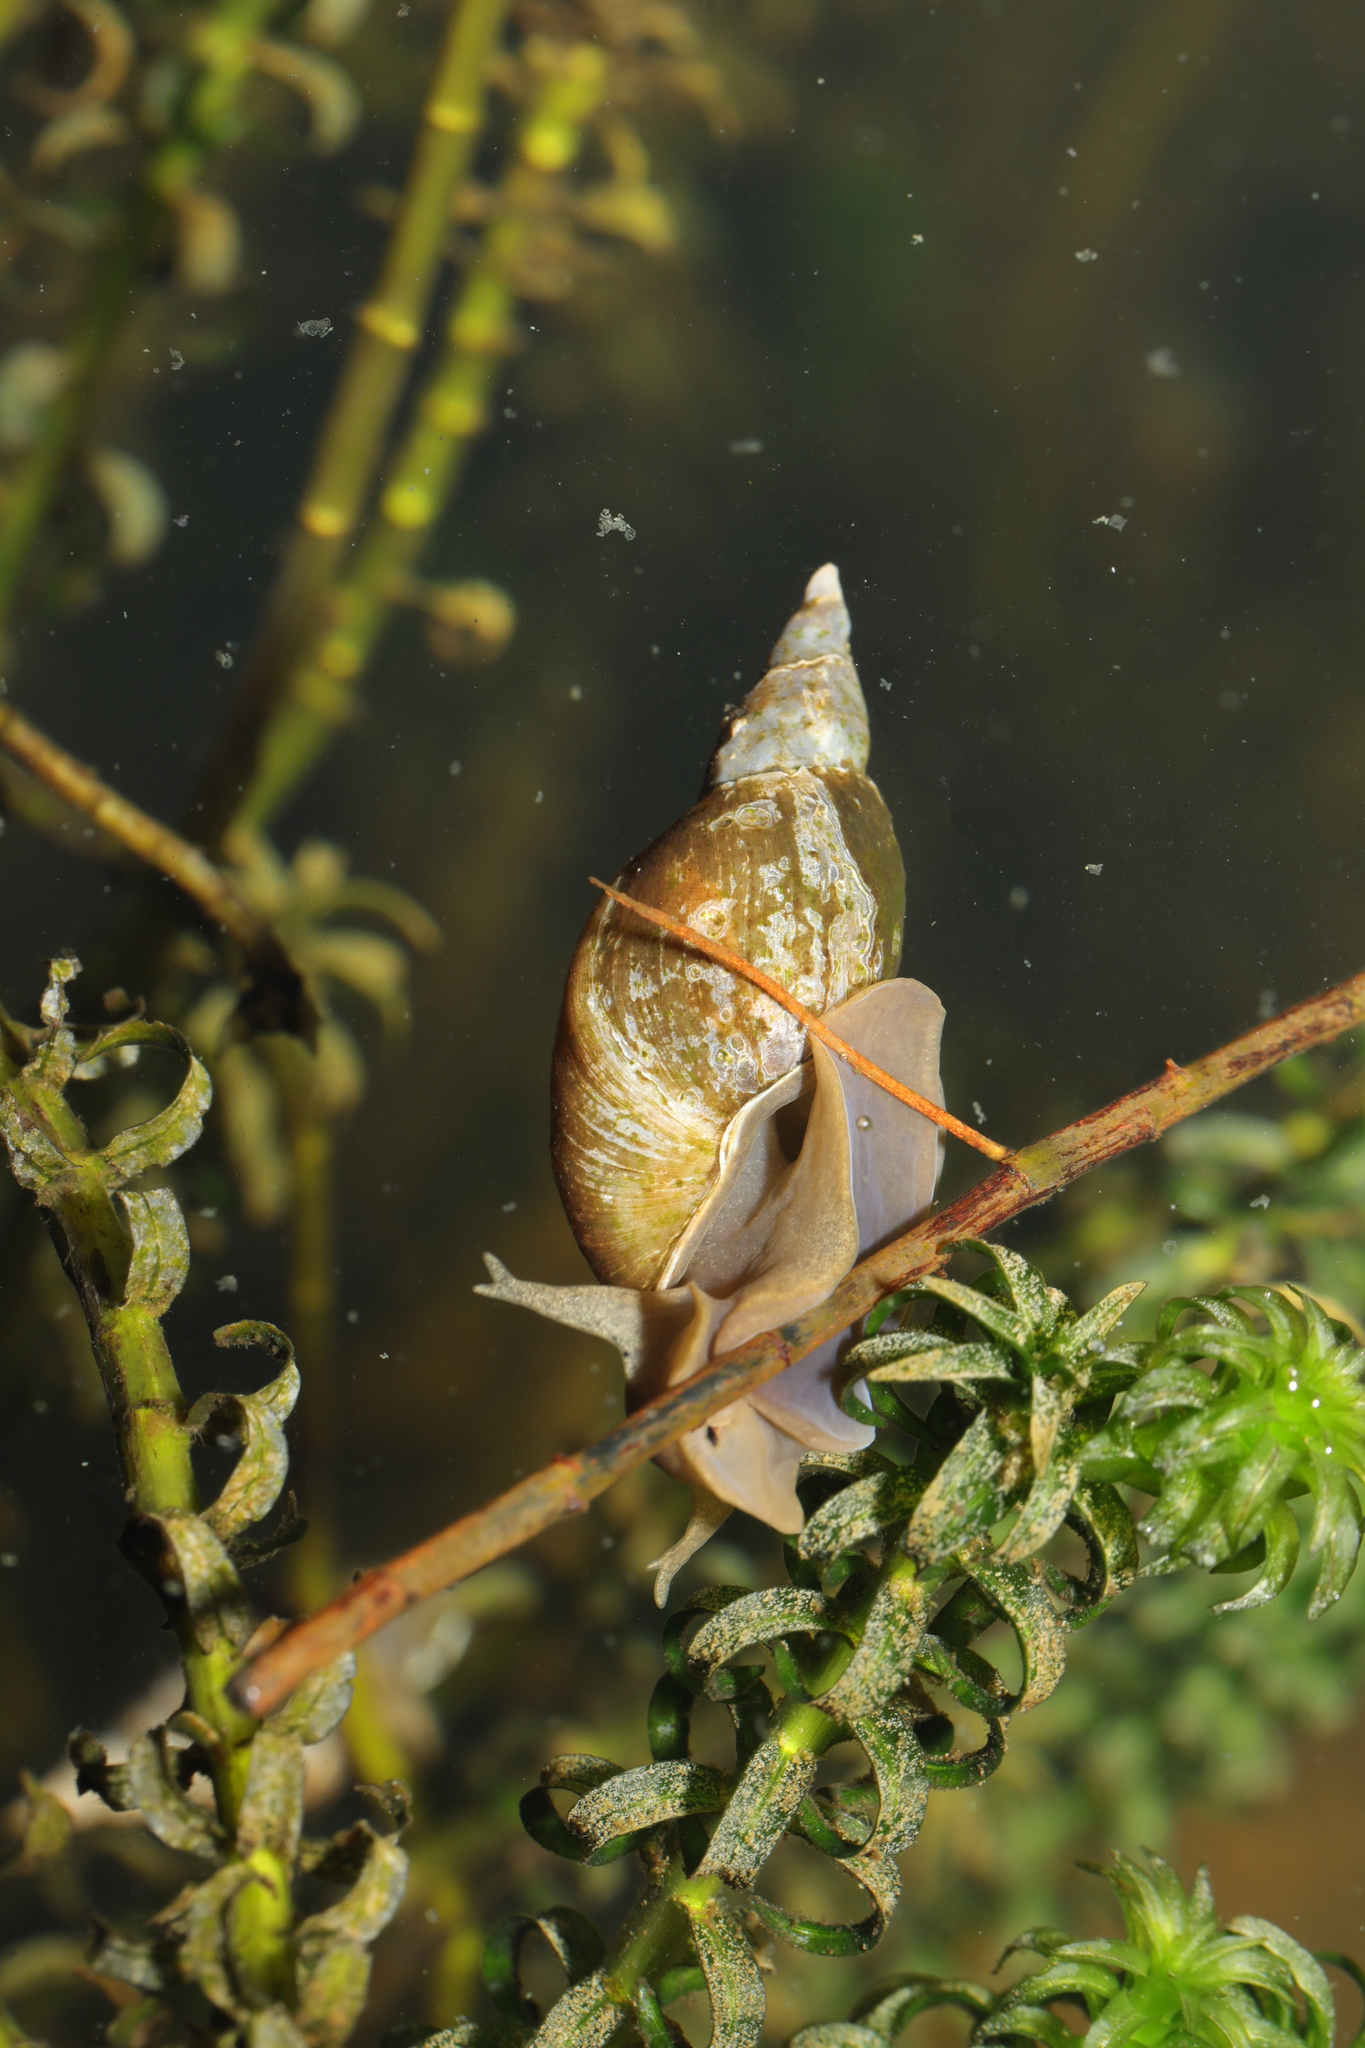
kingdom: Animalia
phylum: Mollusca
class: Gastropoda
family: Lymnaeidae
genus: Lymnaea
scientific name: Lymnaea stagnalis
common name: Great pond snail
